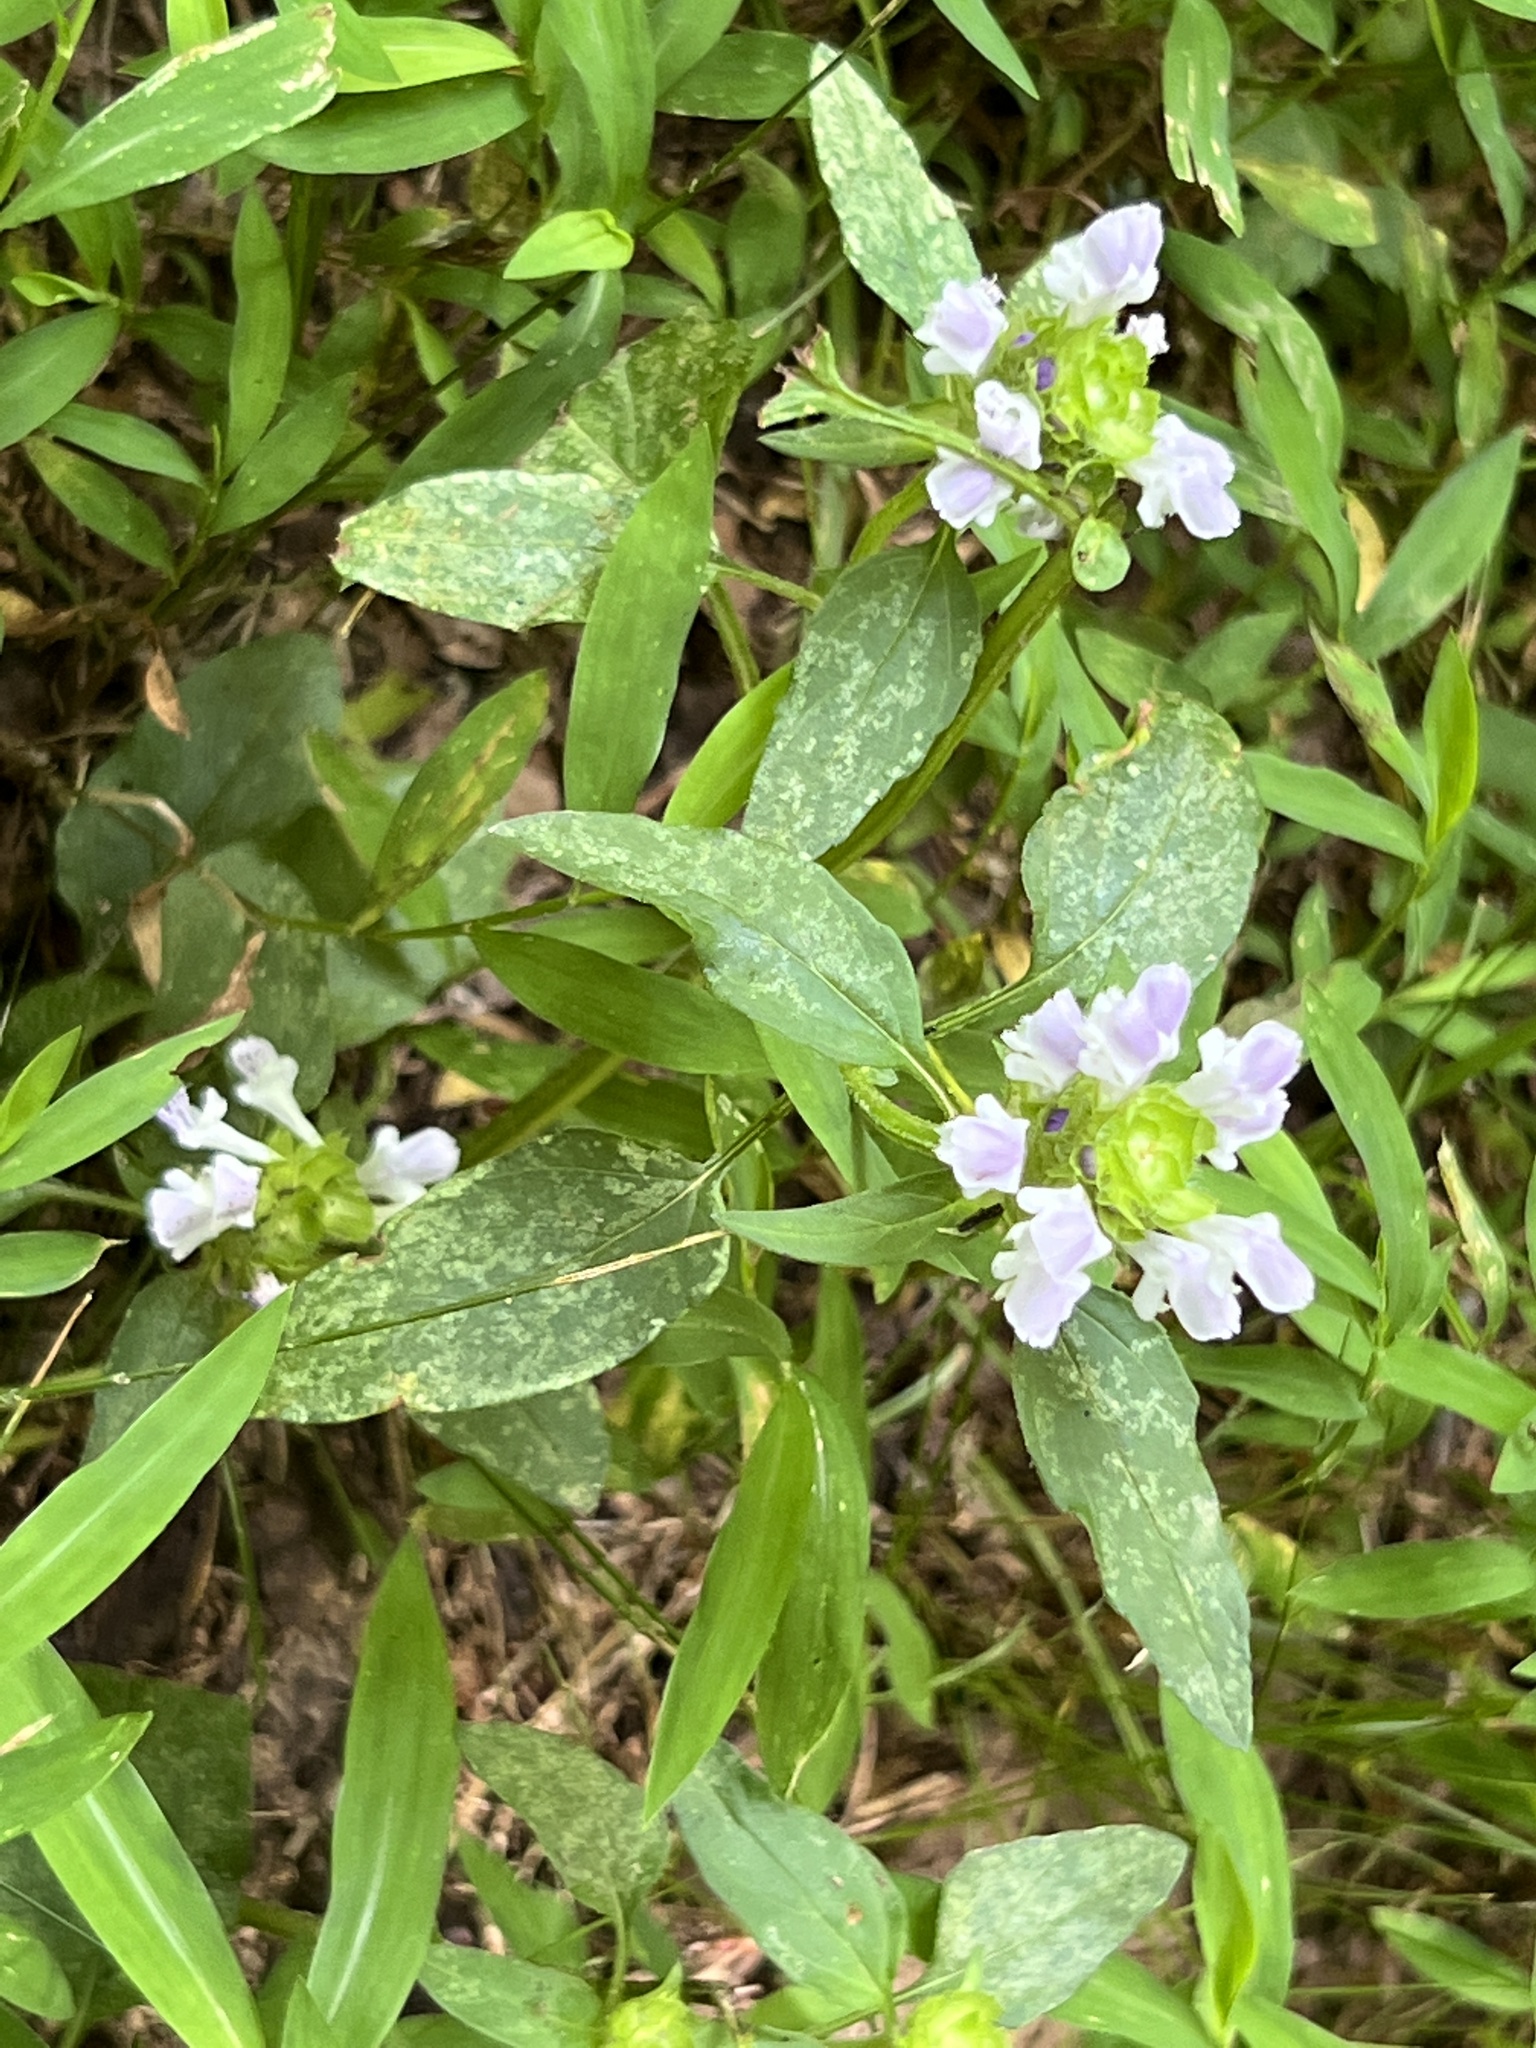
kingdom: Plantae
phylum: Tracheophyta
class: Magnoliopsida
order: Lamiales
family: Lamiaceae
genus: Prunella
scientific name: Prunella vulgaris
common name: Heal-all
